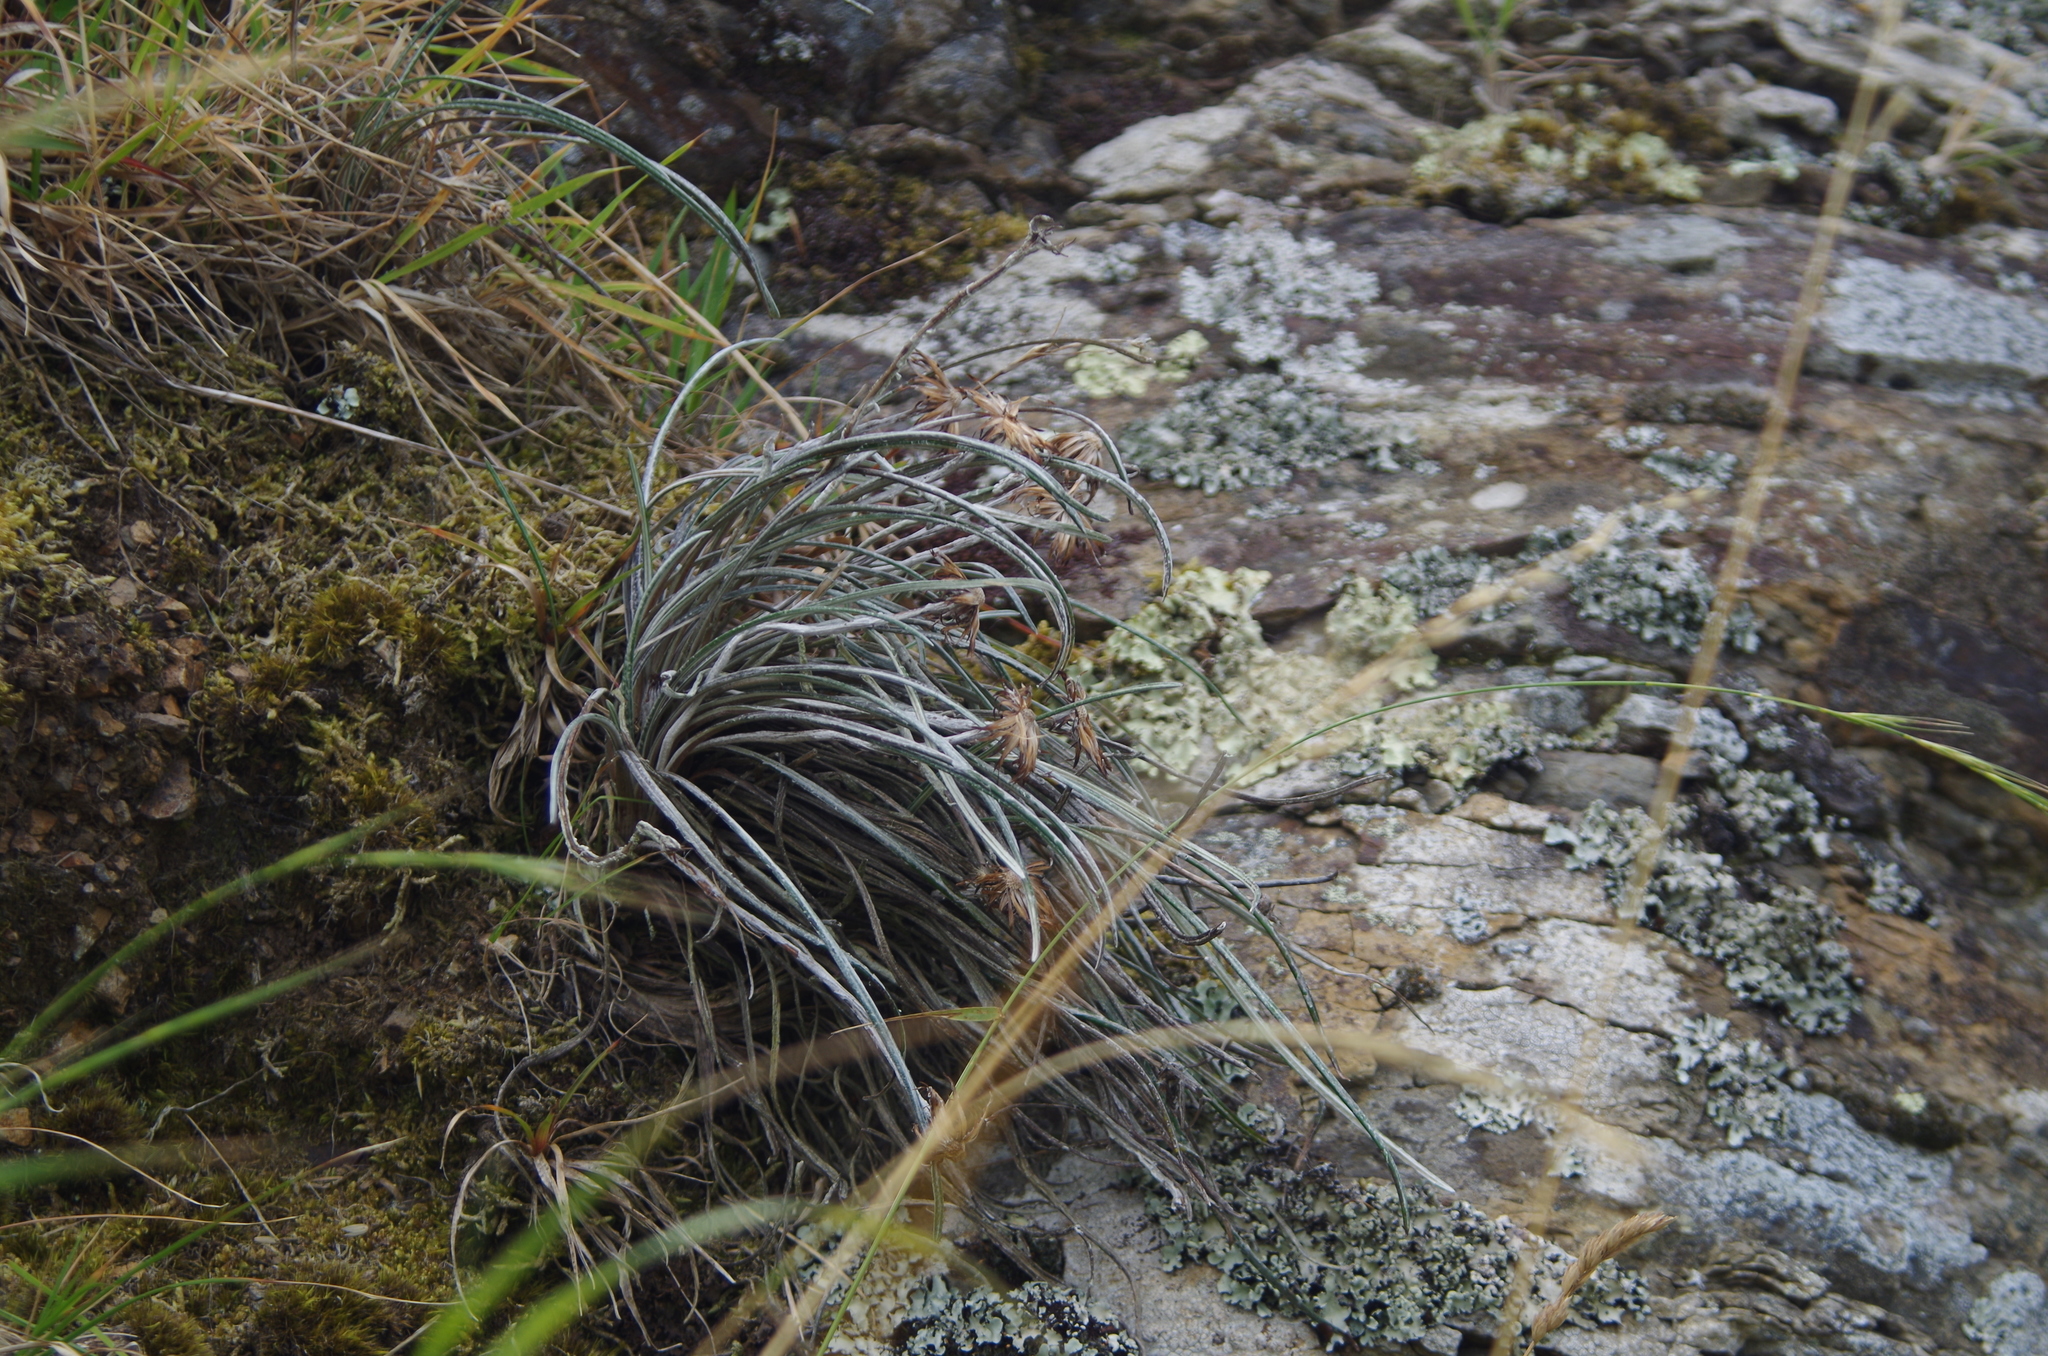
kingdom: Plantae
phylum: Tracheophyta
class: Magnoliopsida
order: Asterales
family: Asteraceae
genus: Celmisia
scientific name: Celmisia gracilenta
